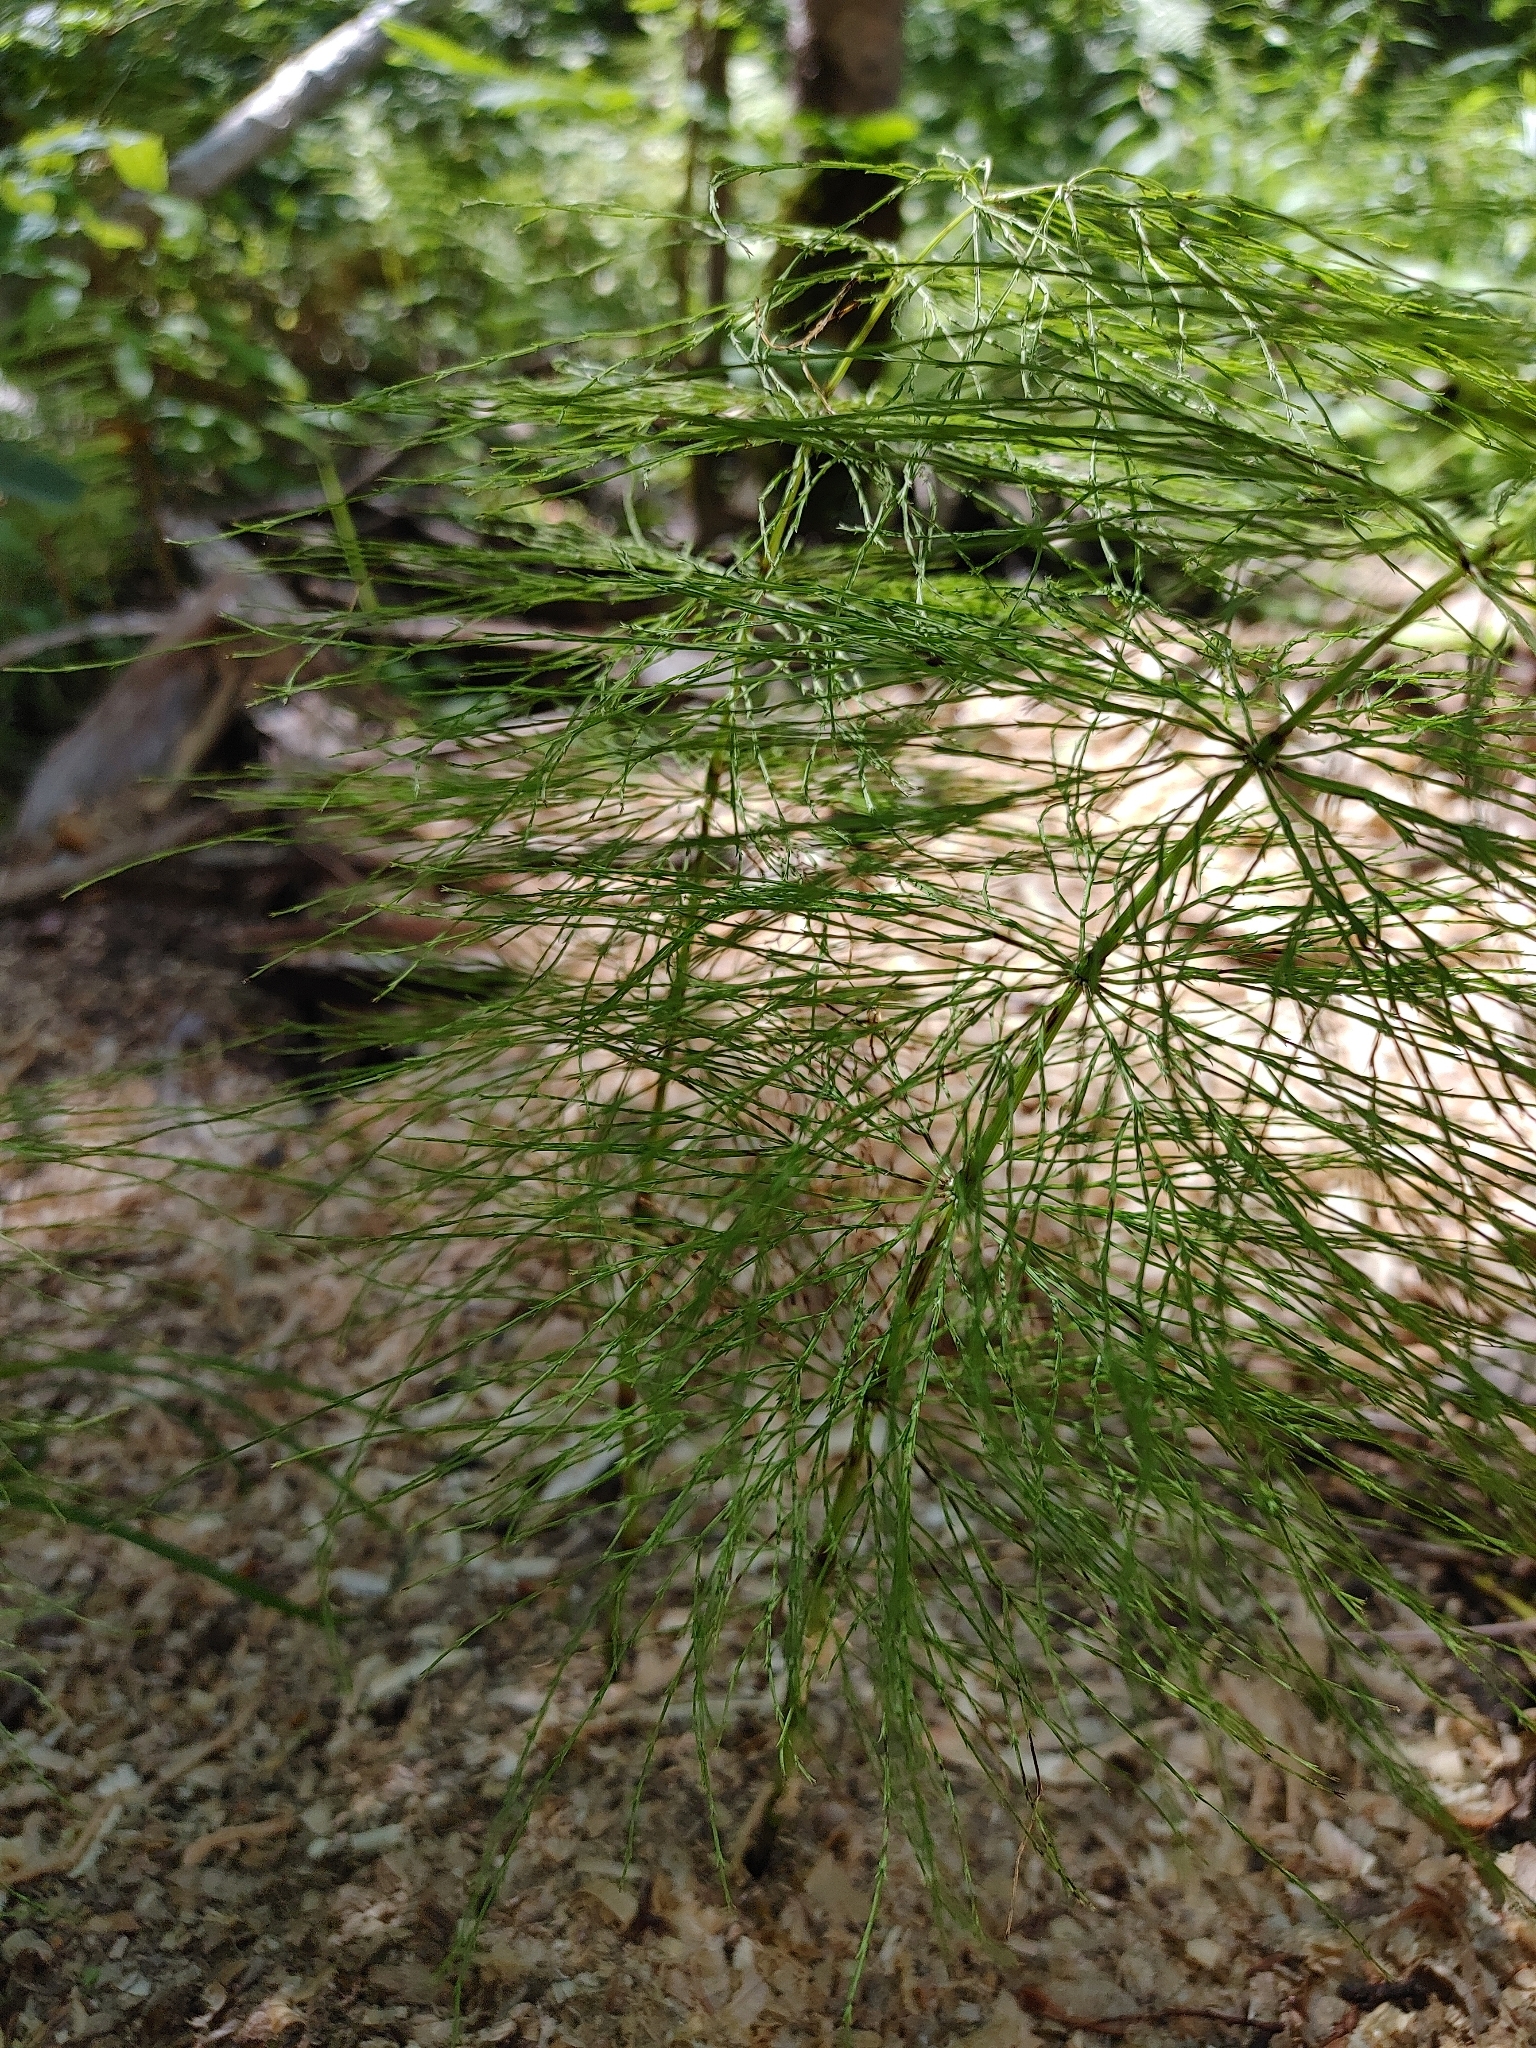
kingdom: Plantae
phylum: Tracheophyta
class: Polypodiopsida
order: Equisetales
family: Equisetaceae
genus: Equisetum
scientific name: Equisetum sylvaticum
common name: Wood horsetail
